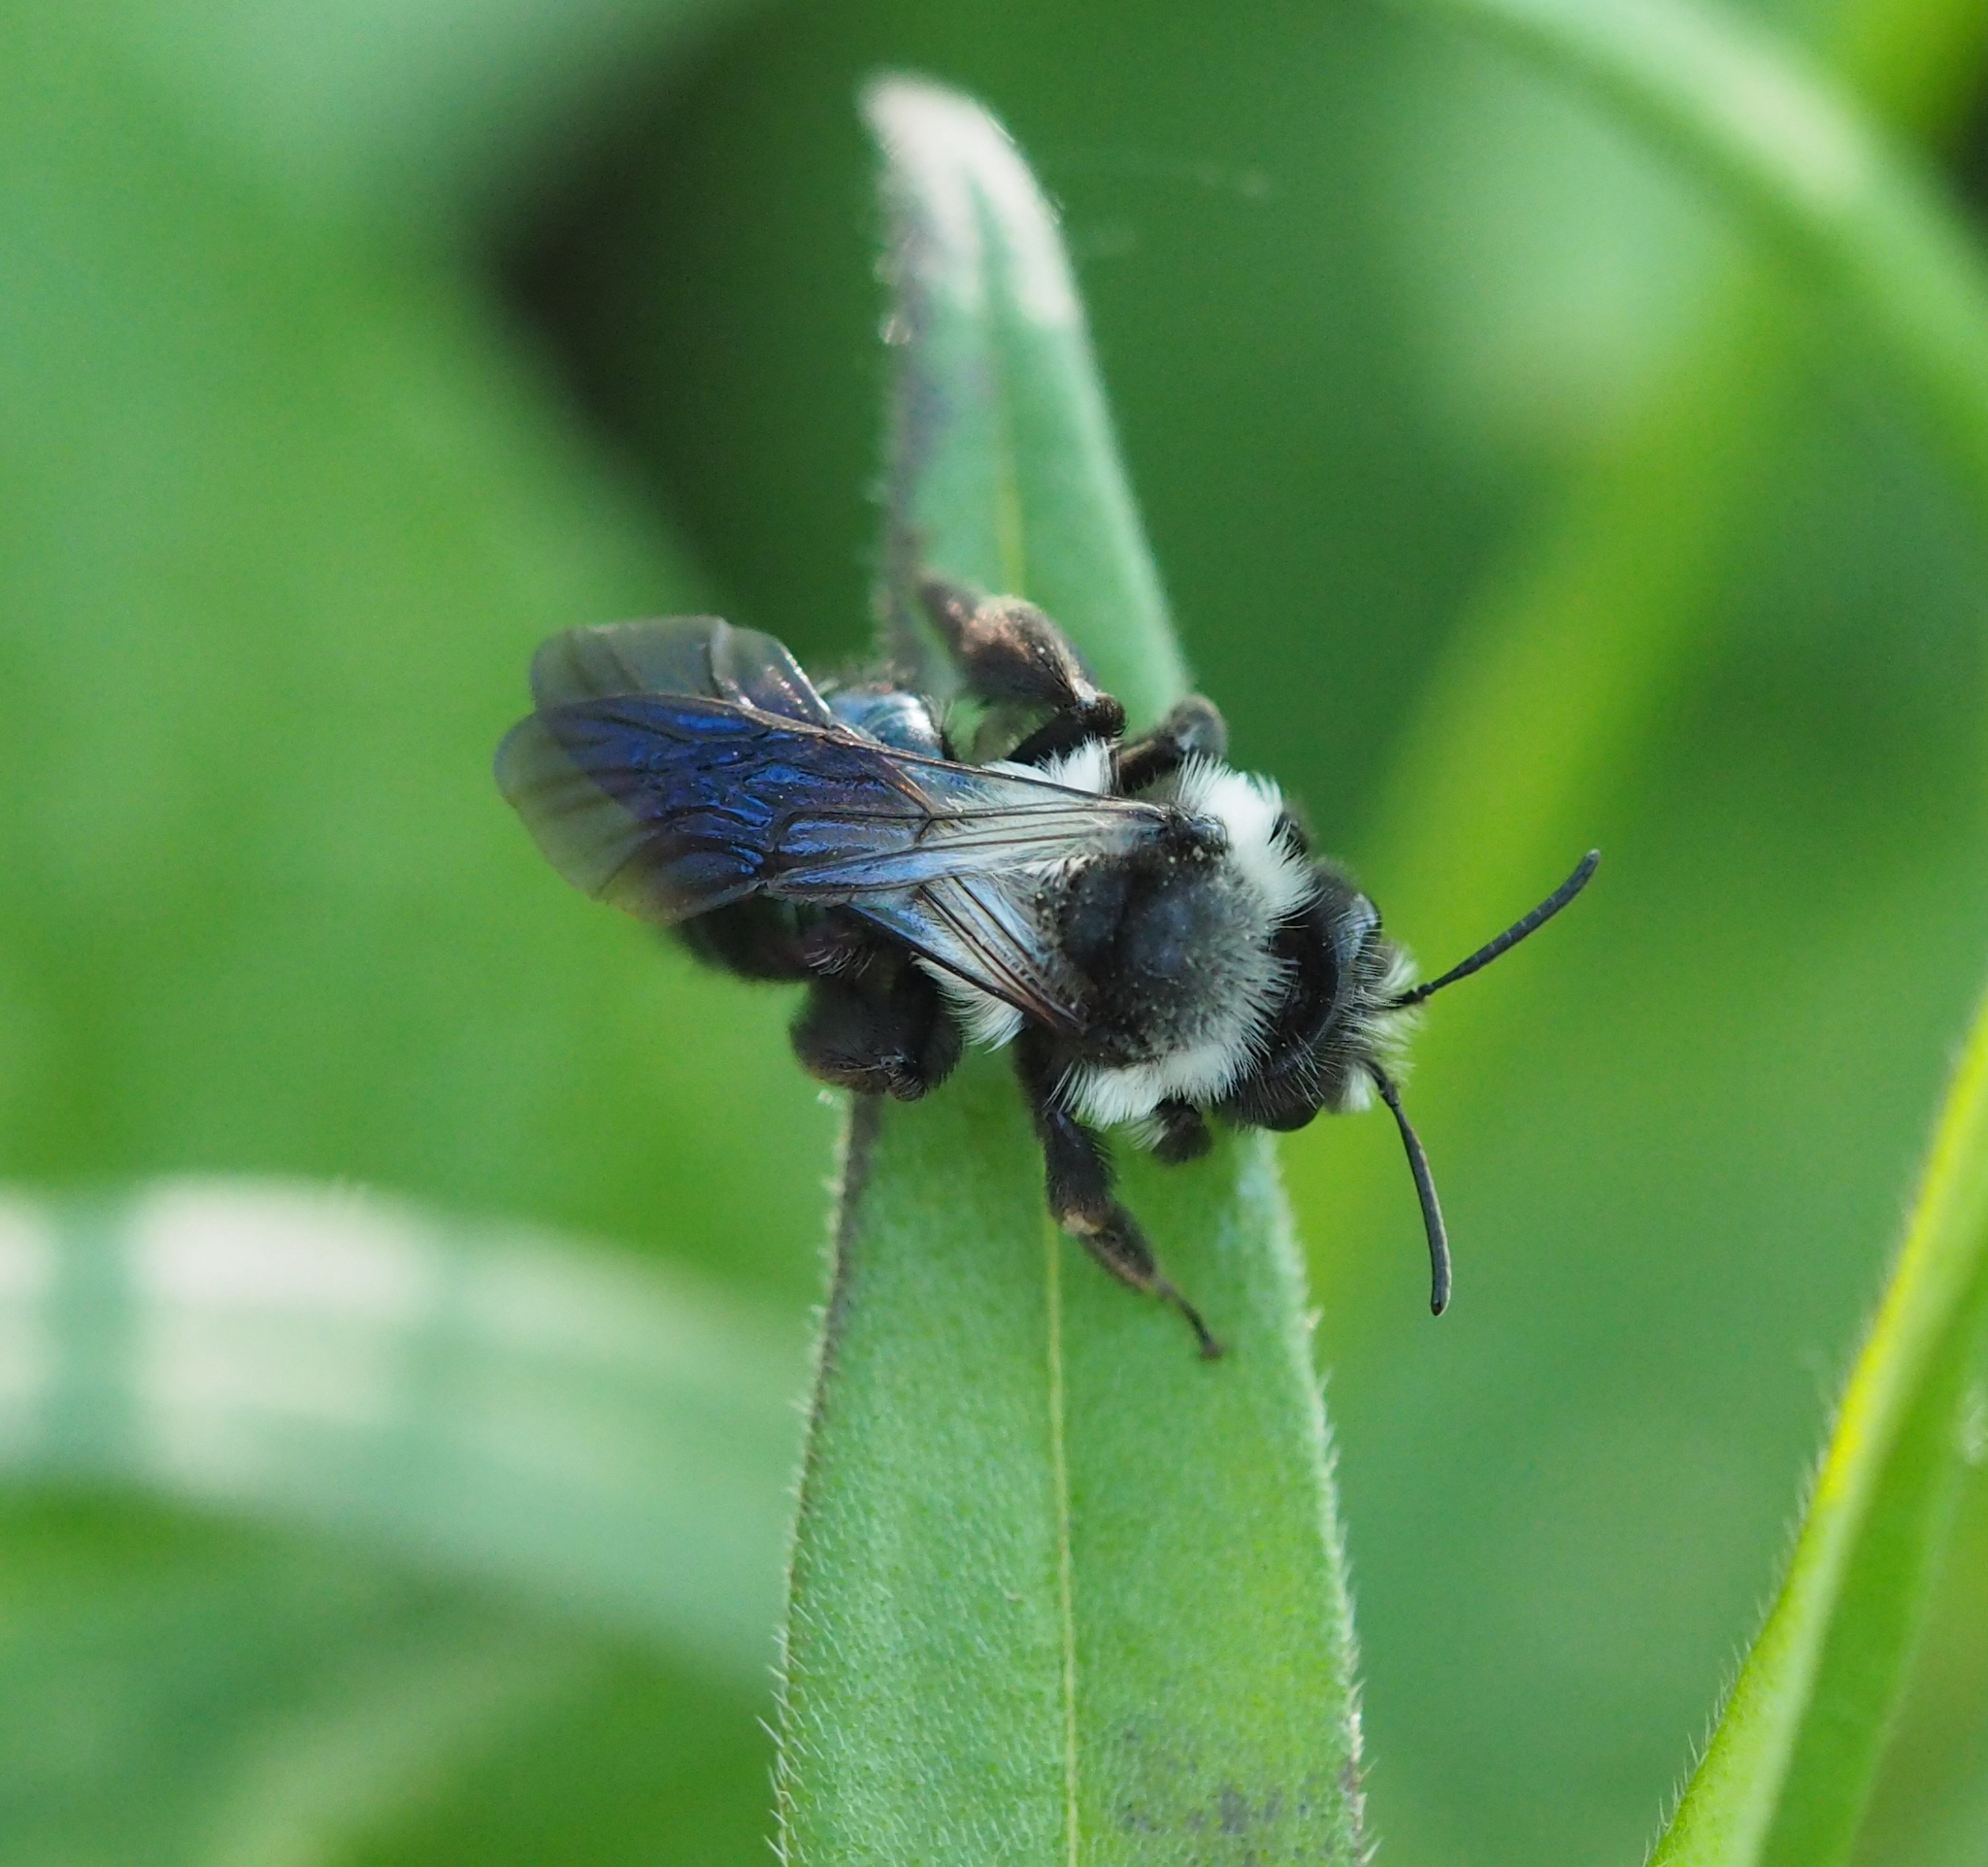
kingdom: Animalia
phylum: Arthropoda
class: Insecta
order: Hymenoptera
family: Andrenidae
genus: Andrena
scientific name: Andrena cineraria
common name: Ashy mining bee
